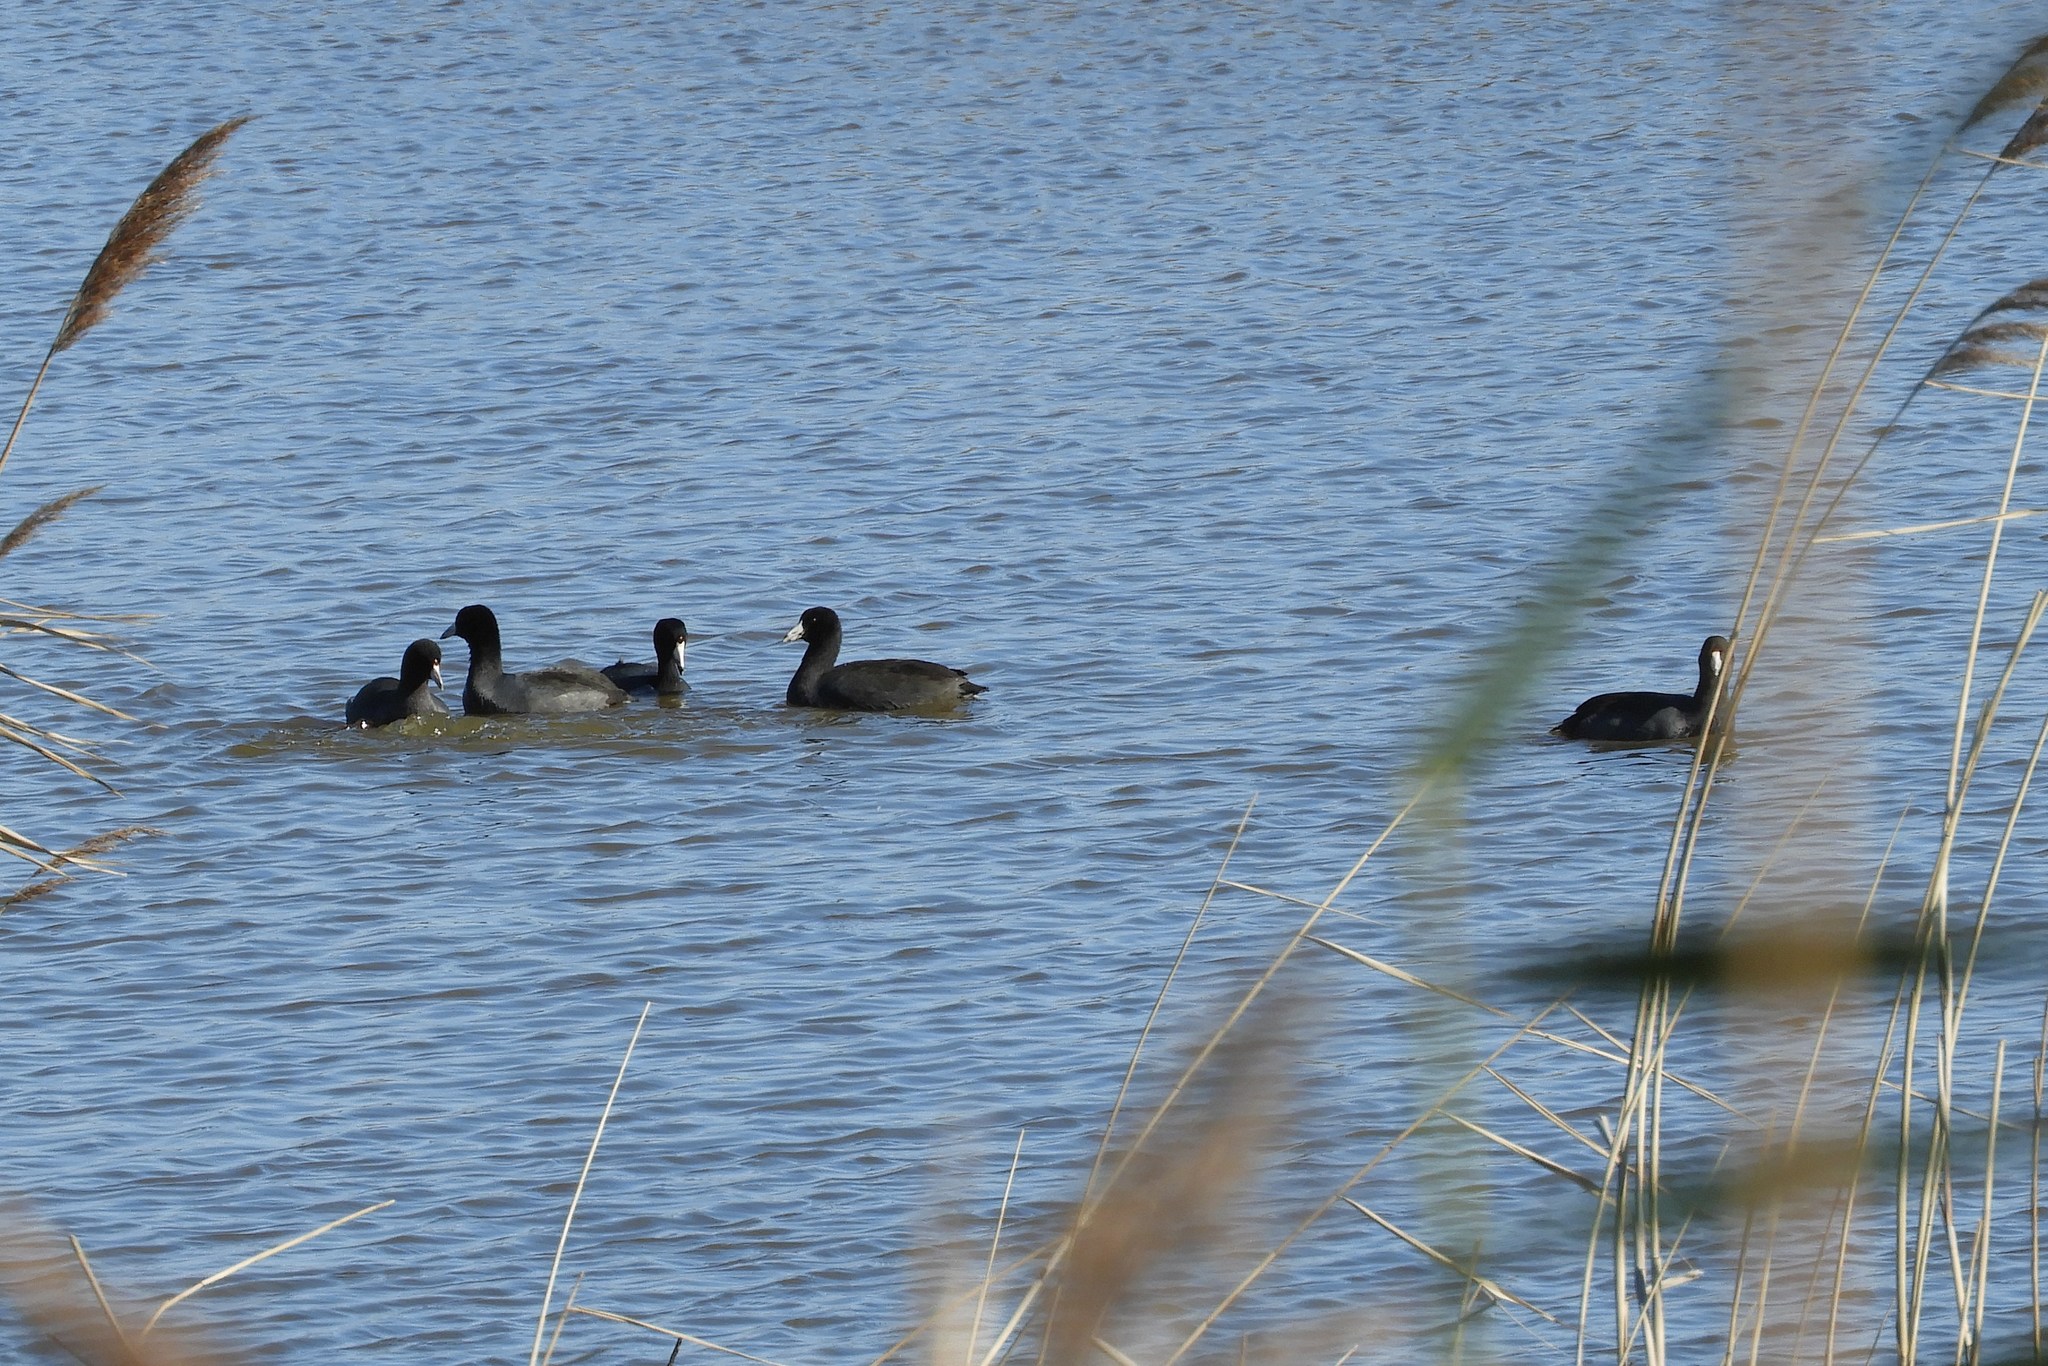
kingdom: Animalia
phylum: Chordata
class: Aves
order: Gruiformes
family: Rallidae
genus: Fulica
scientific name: Fulica americana
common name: American coot
